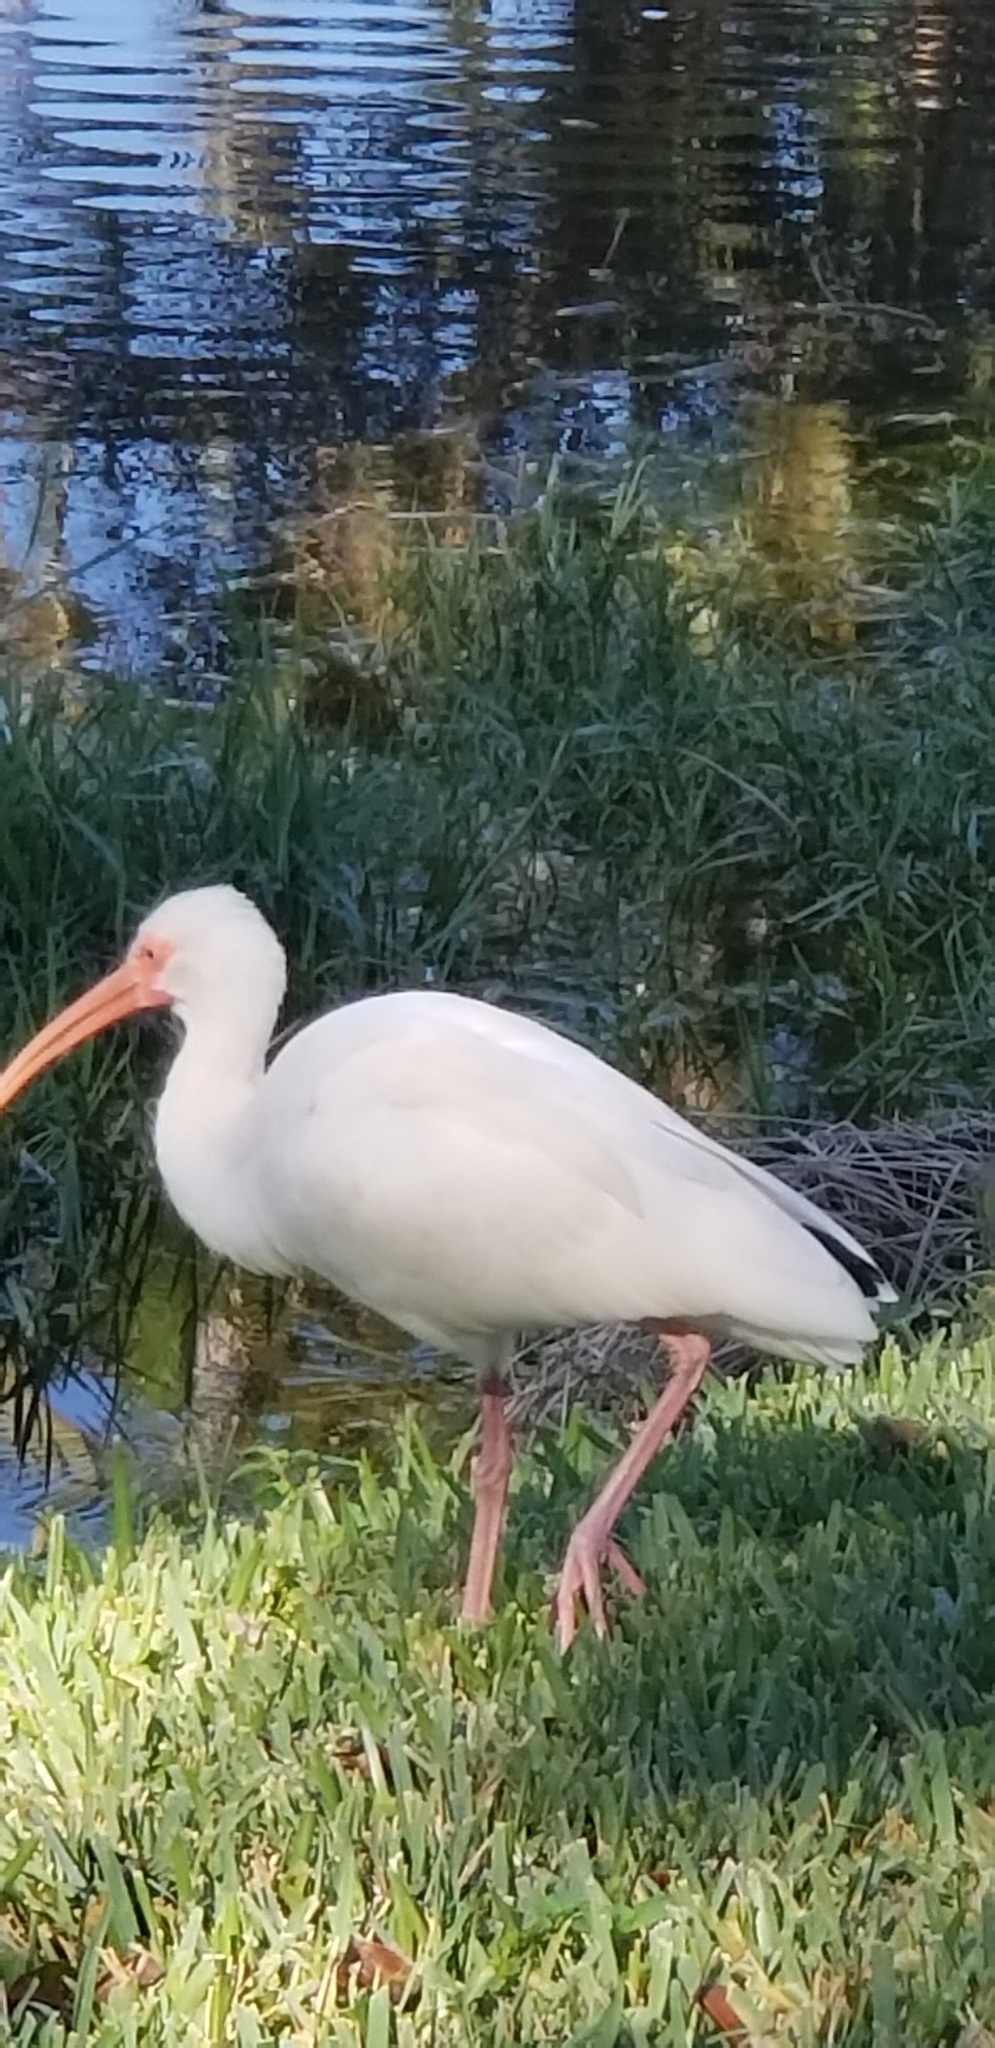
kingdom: Animalia
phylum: Chordata
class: Aves
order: Pelecaniformes
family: Threskiornithidae
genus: Eudocimus
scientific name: Eudocimus albus
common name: White ibis
